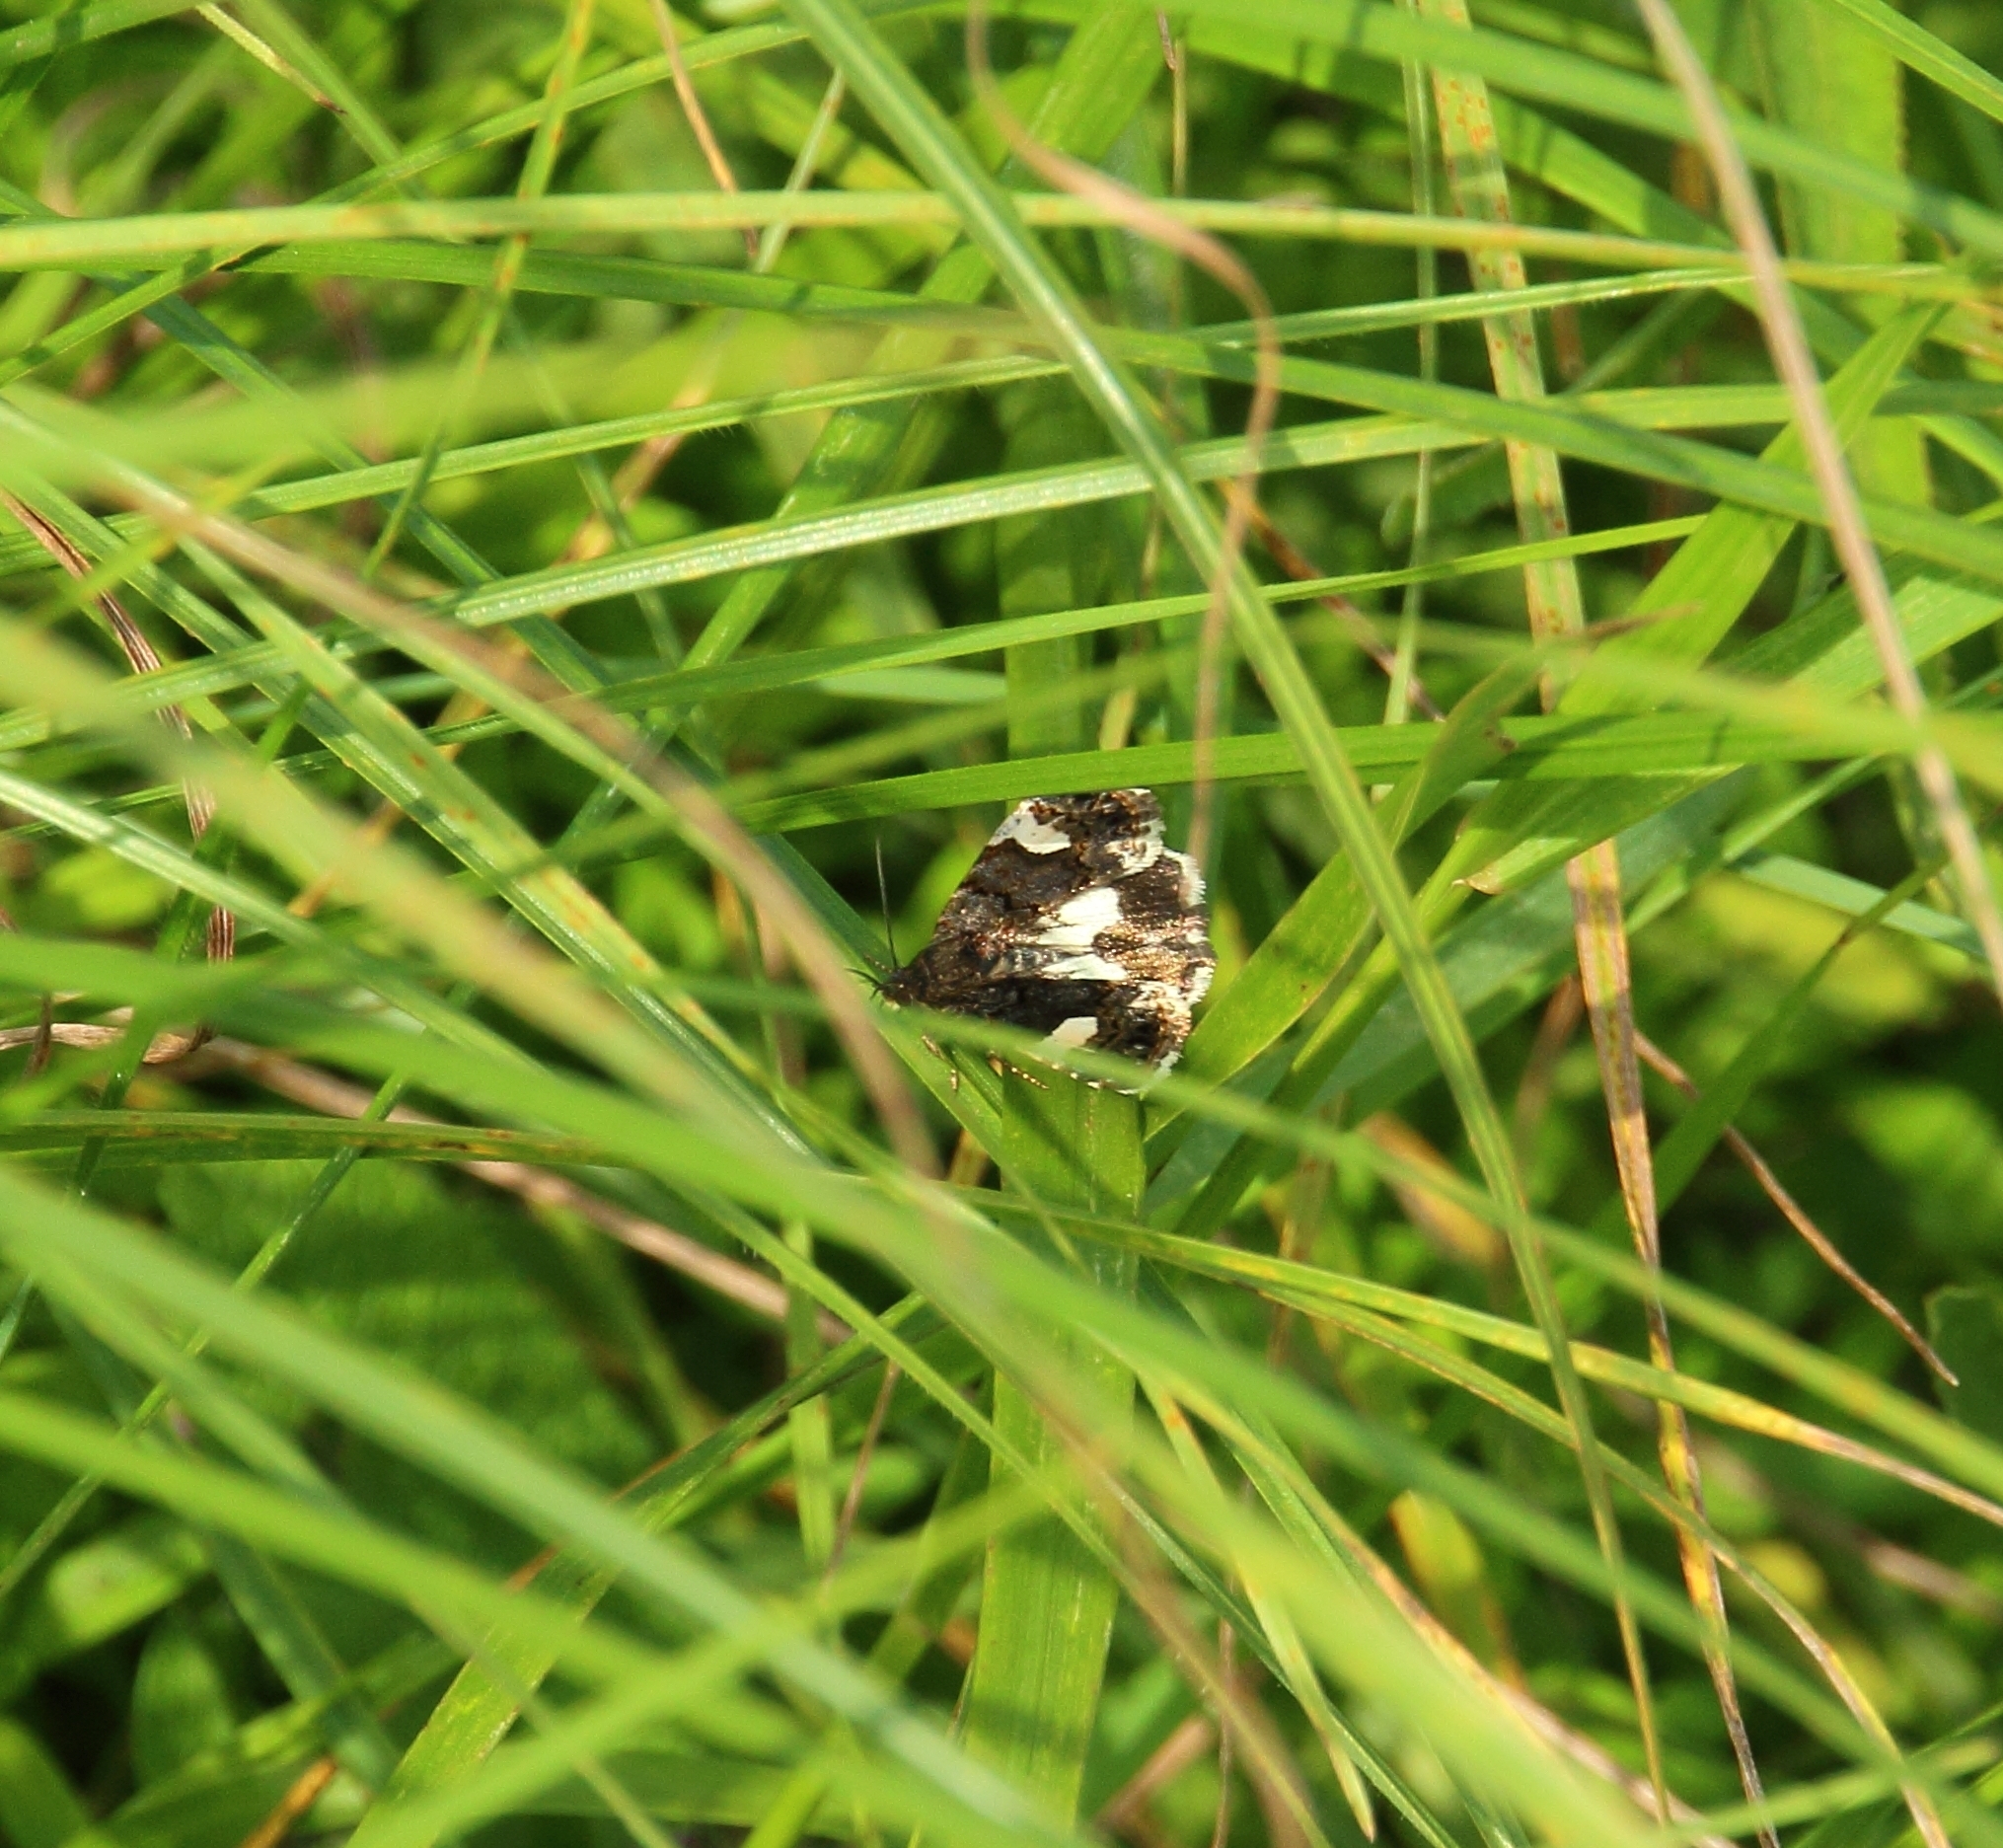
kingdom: Animalia
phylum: Arthropoda
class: Insecta
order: Lepidoptera
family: Erebidae
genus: Tyta
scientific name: Tyta luctuosa
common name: Four-spotted
